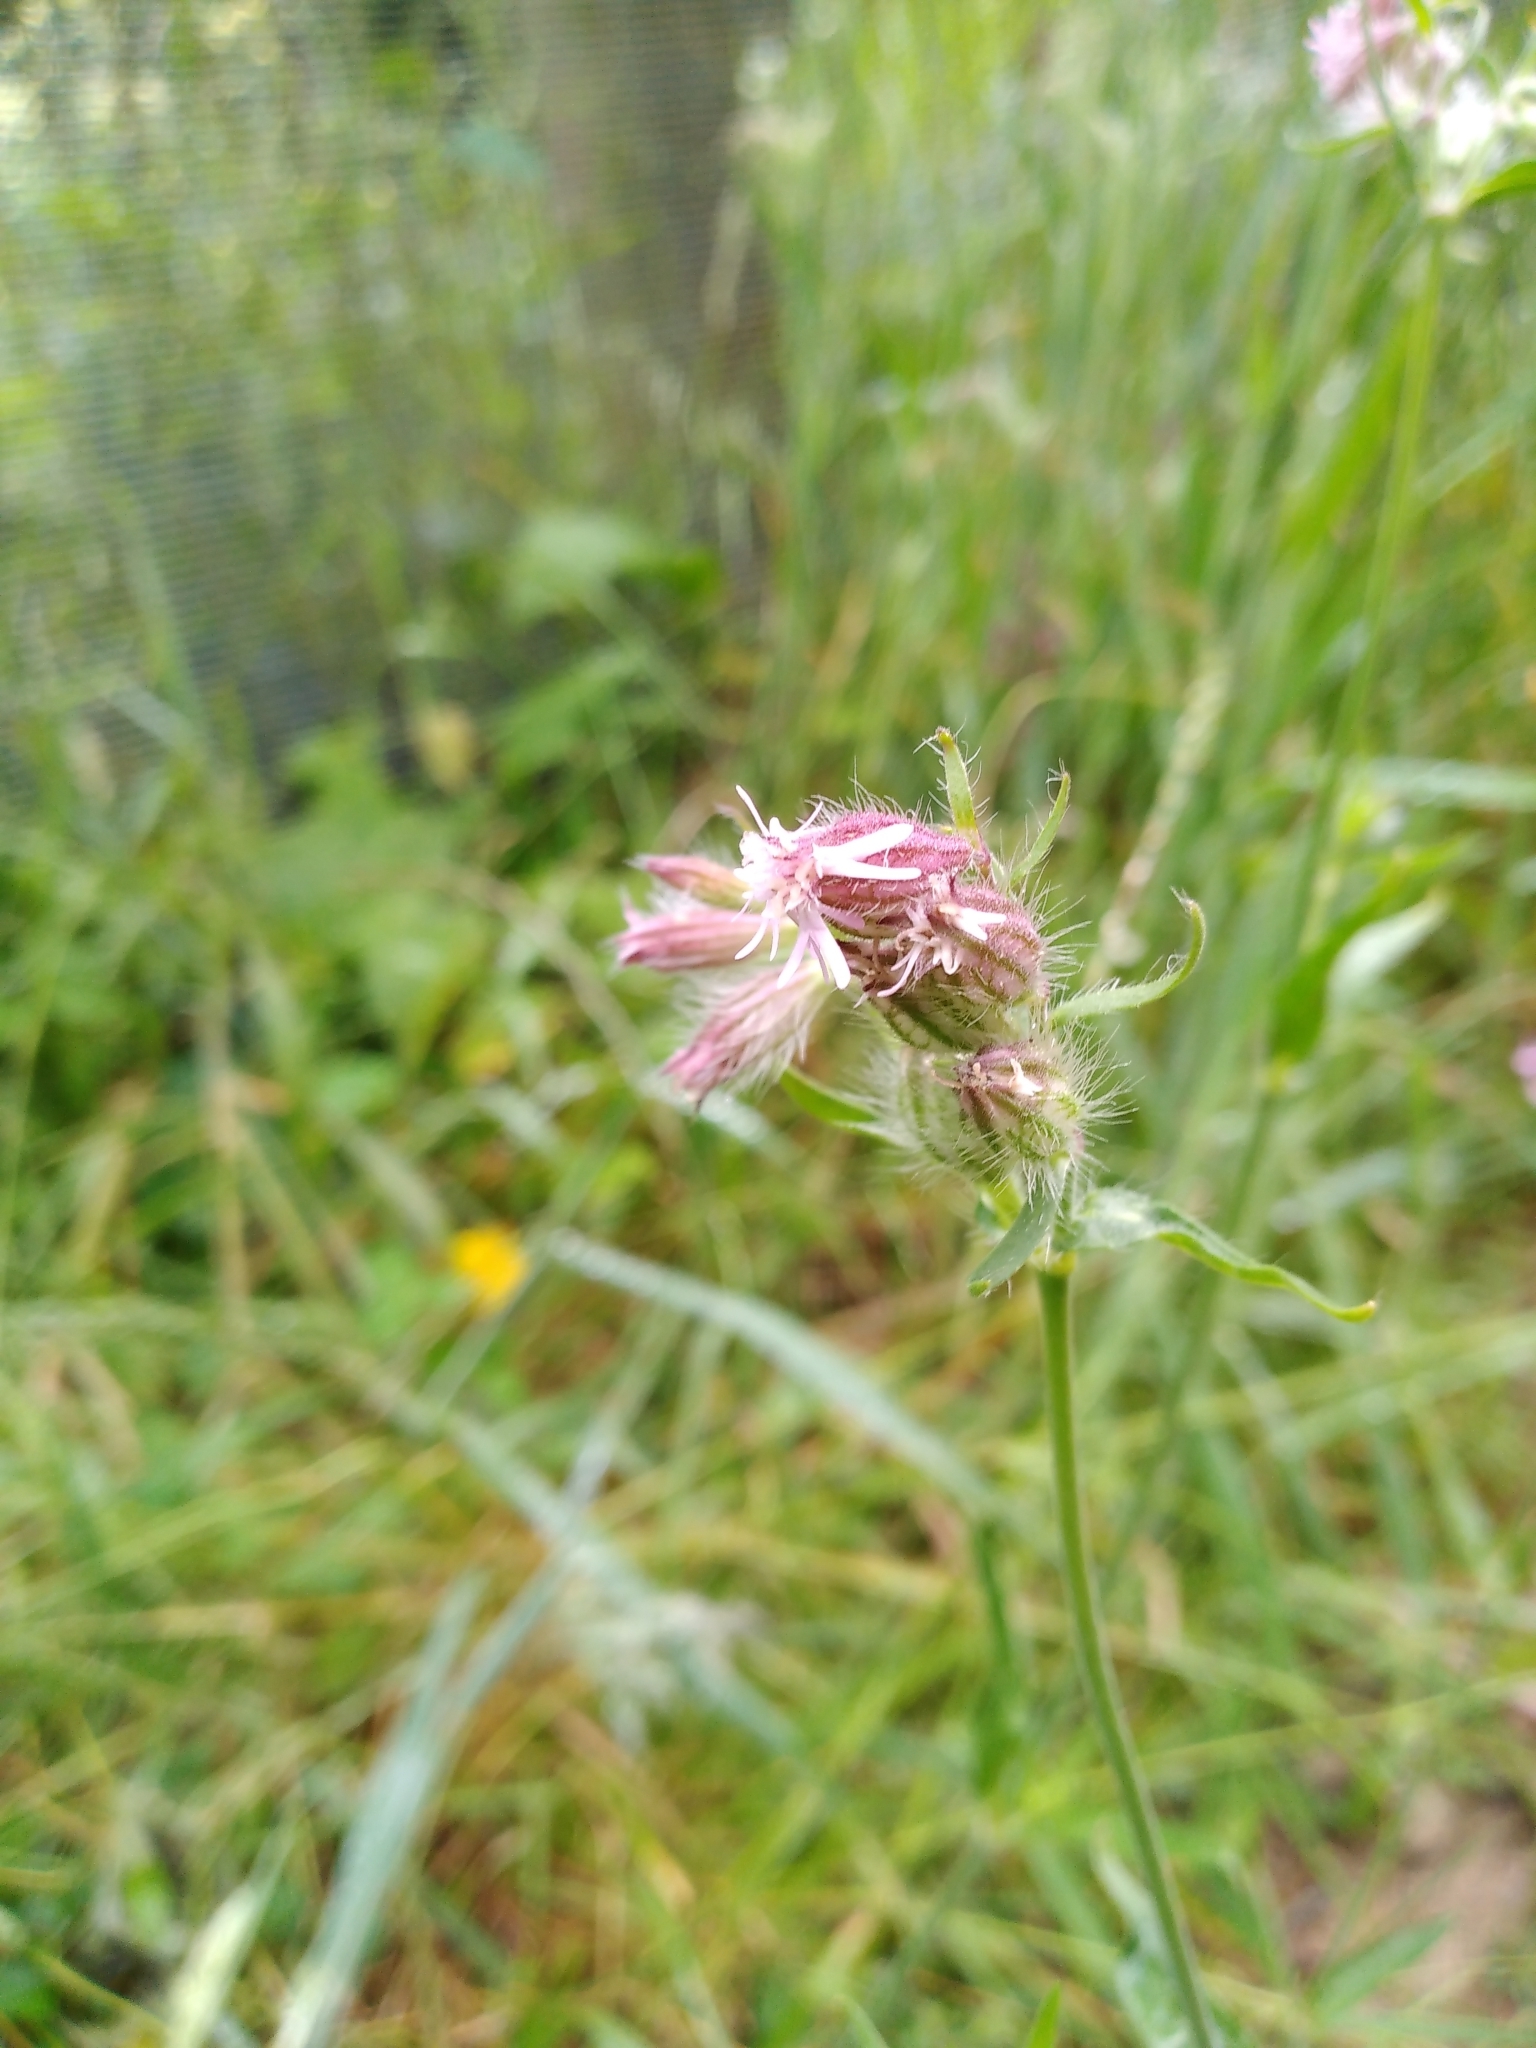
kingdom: Plantae
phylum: Tracheophyta
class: Magnoliopsida
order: Caryophyllales
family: Caryophyllaceae
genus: Silene
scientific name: Silene disticha
